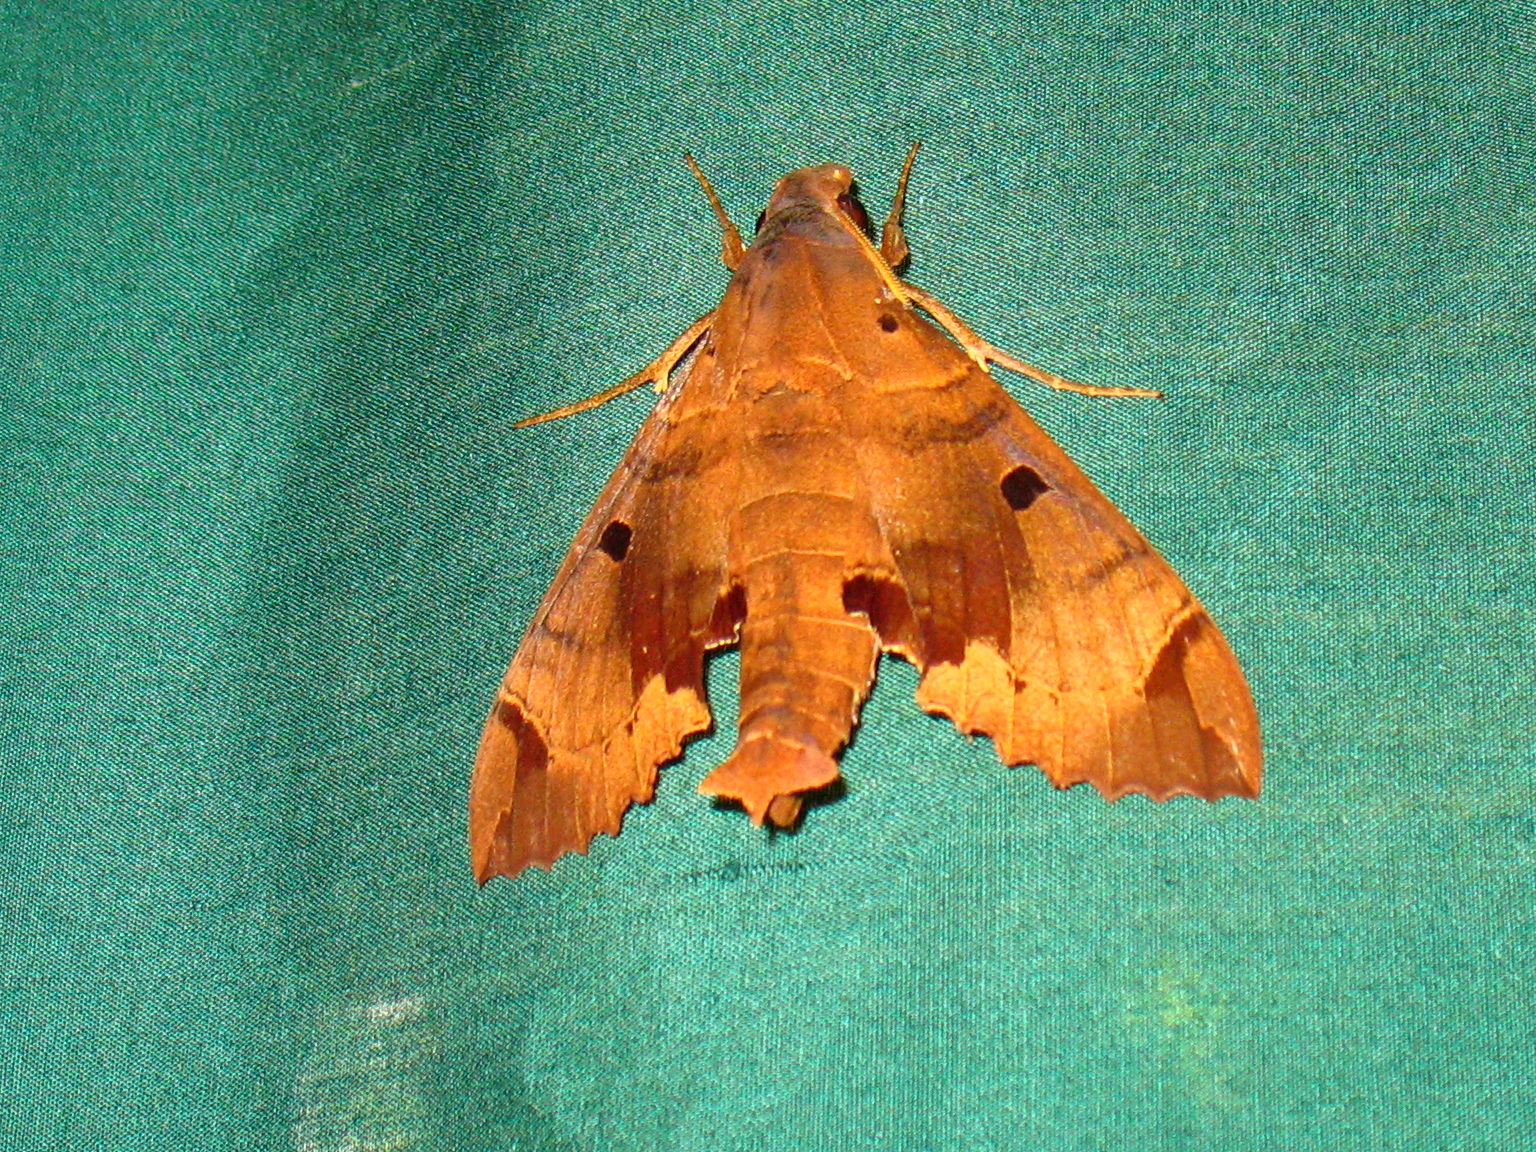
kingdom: Animalia
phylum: Arthropoda
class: Insecta
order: Lepidoptera
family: Sphingidae
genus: Kloneus
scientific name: Kloneus babayaga
